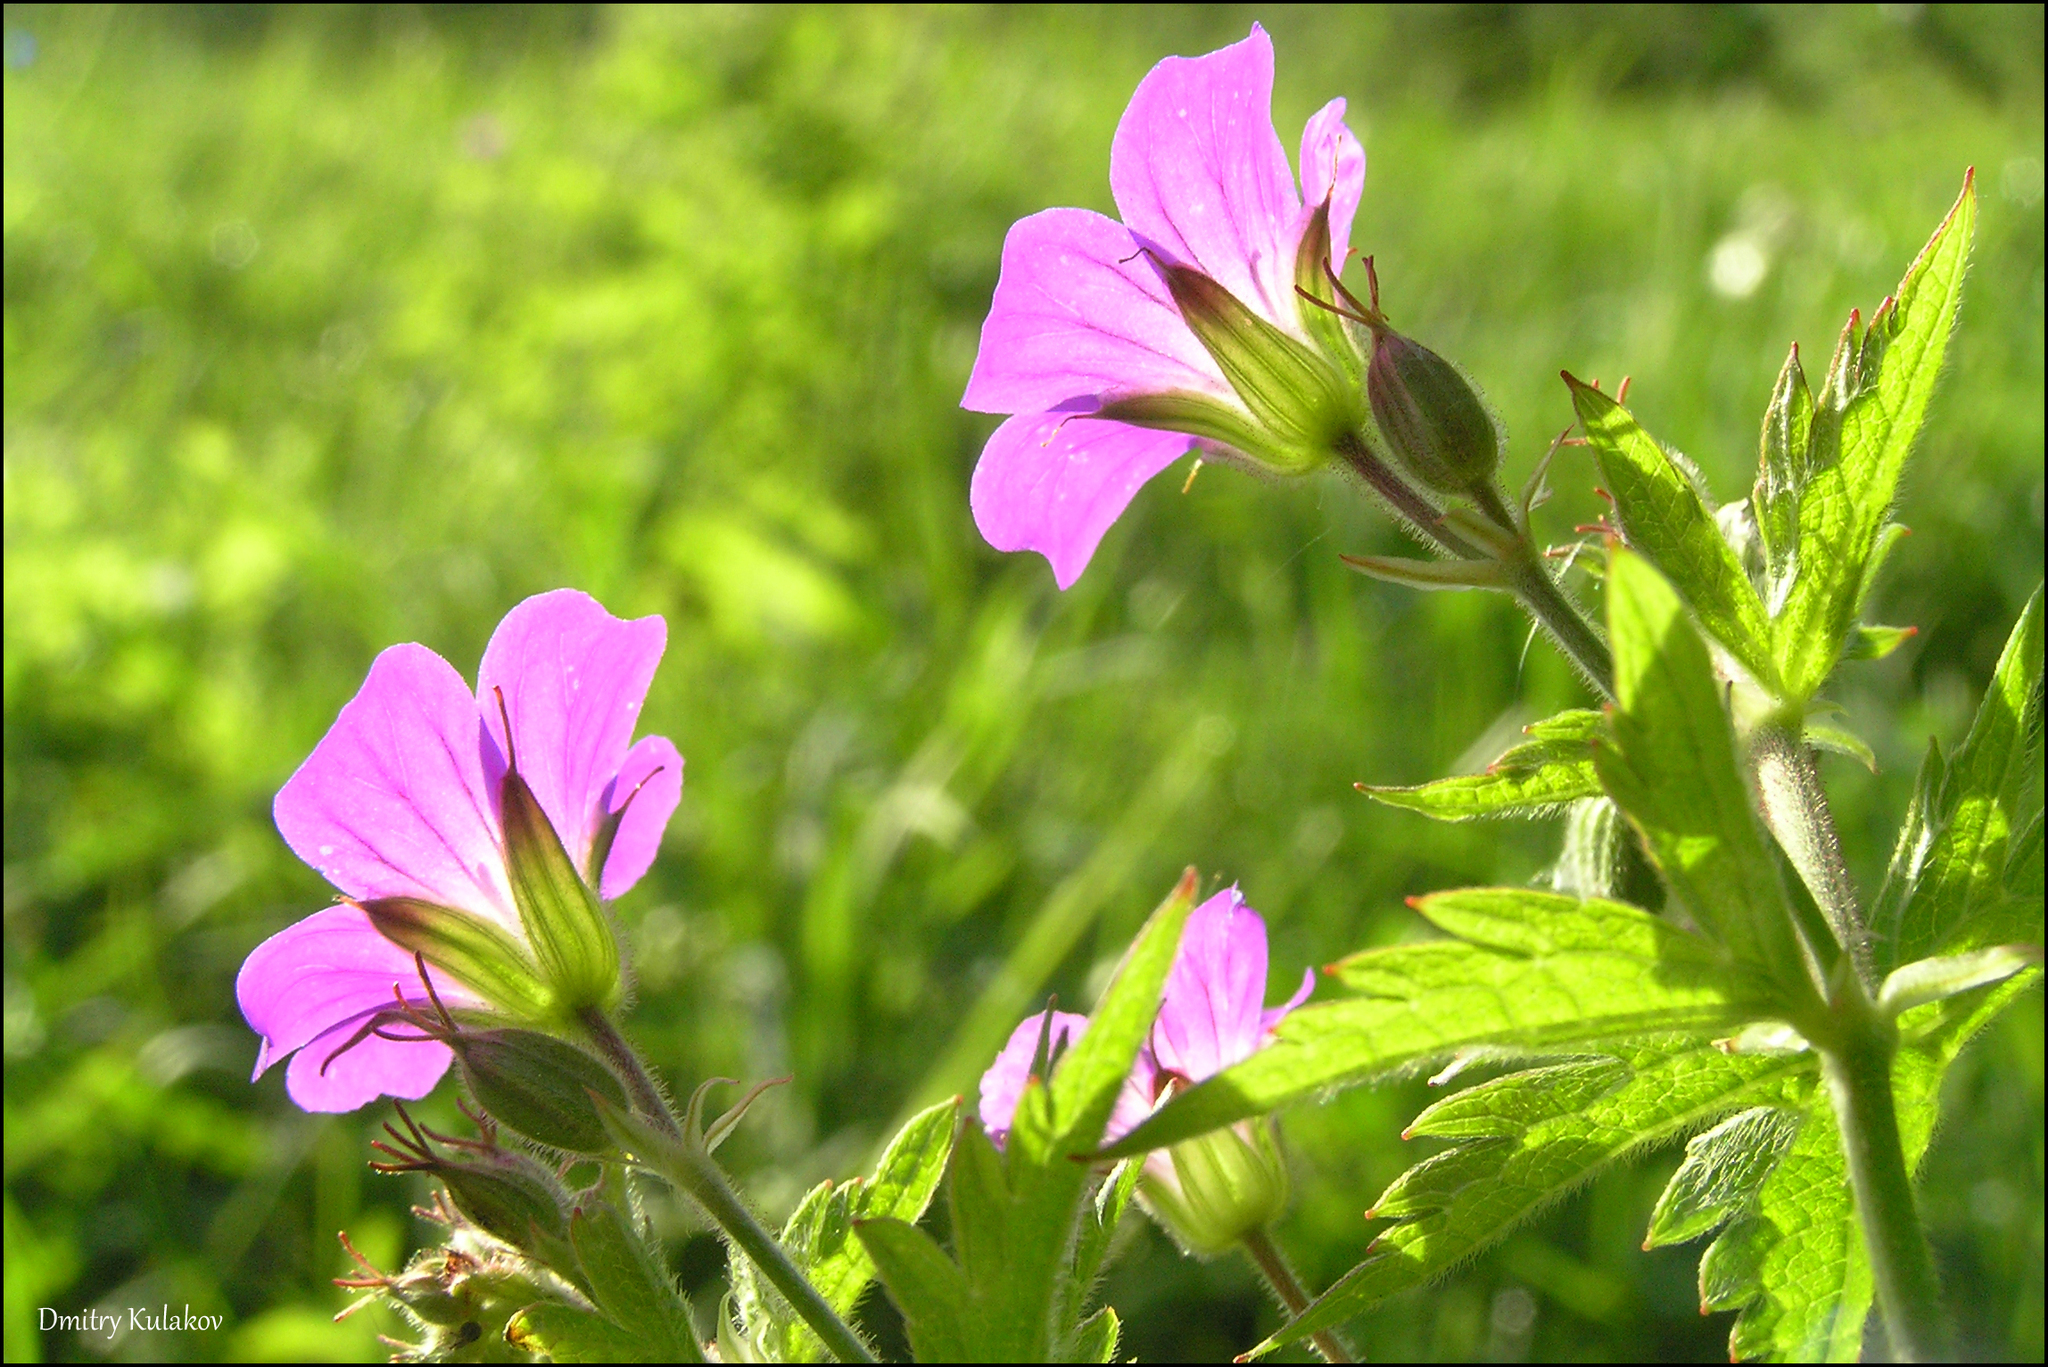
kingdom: Plantae
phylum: Tracheophyta
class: Magnoliopsida
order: Geraniales
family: Geraniaceae
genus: Geranium
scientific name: Geranium sylvaticum
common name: Wood crane's-bill
